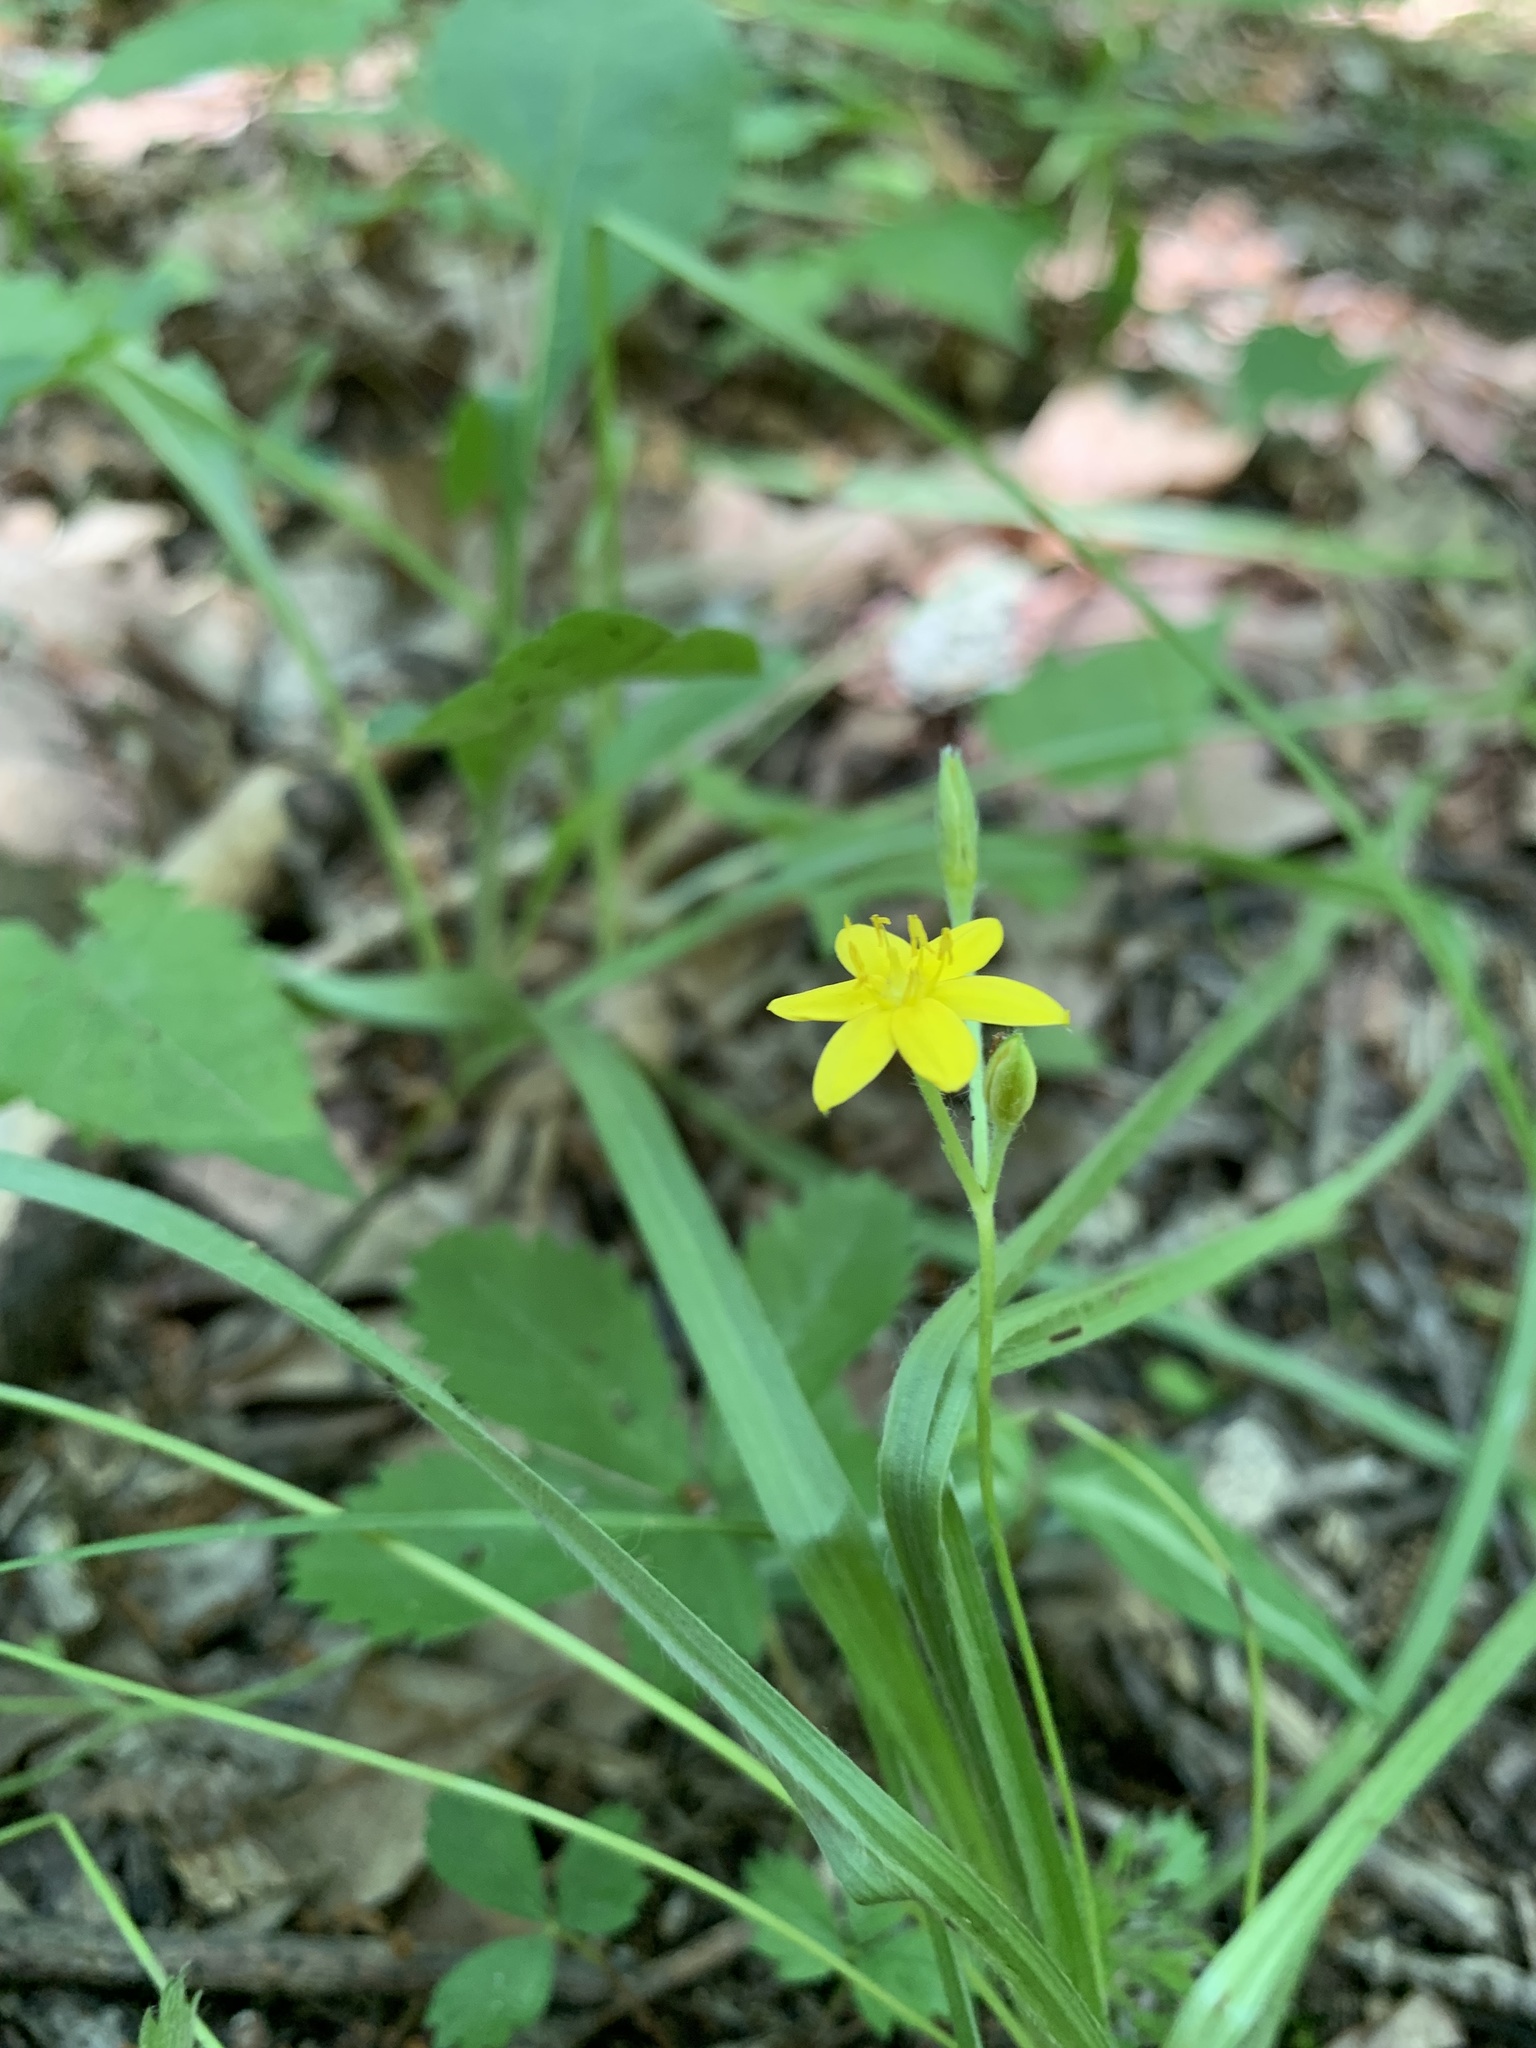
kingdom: Plantae
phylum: Tracheophyta
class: Liliopsida
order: Asparagales
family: Hypoxidaceae
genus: Hypoxis
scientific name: Hypoxis hirsuta
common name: Common goldstar
